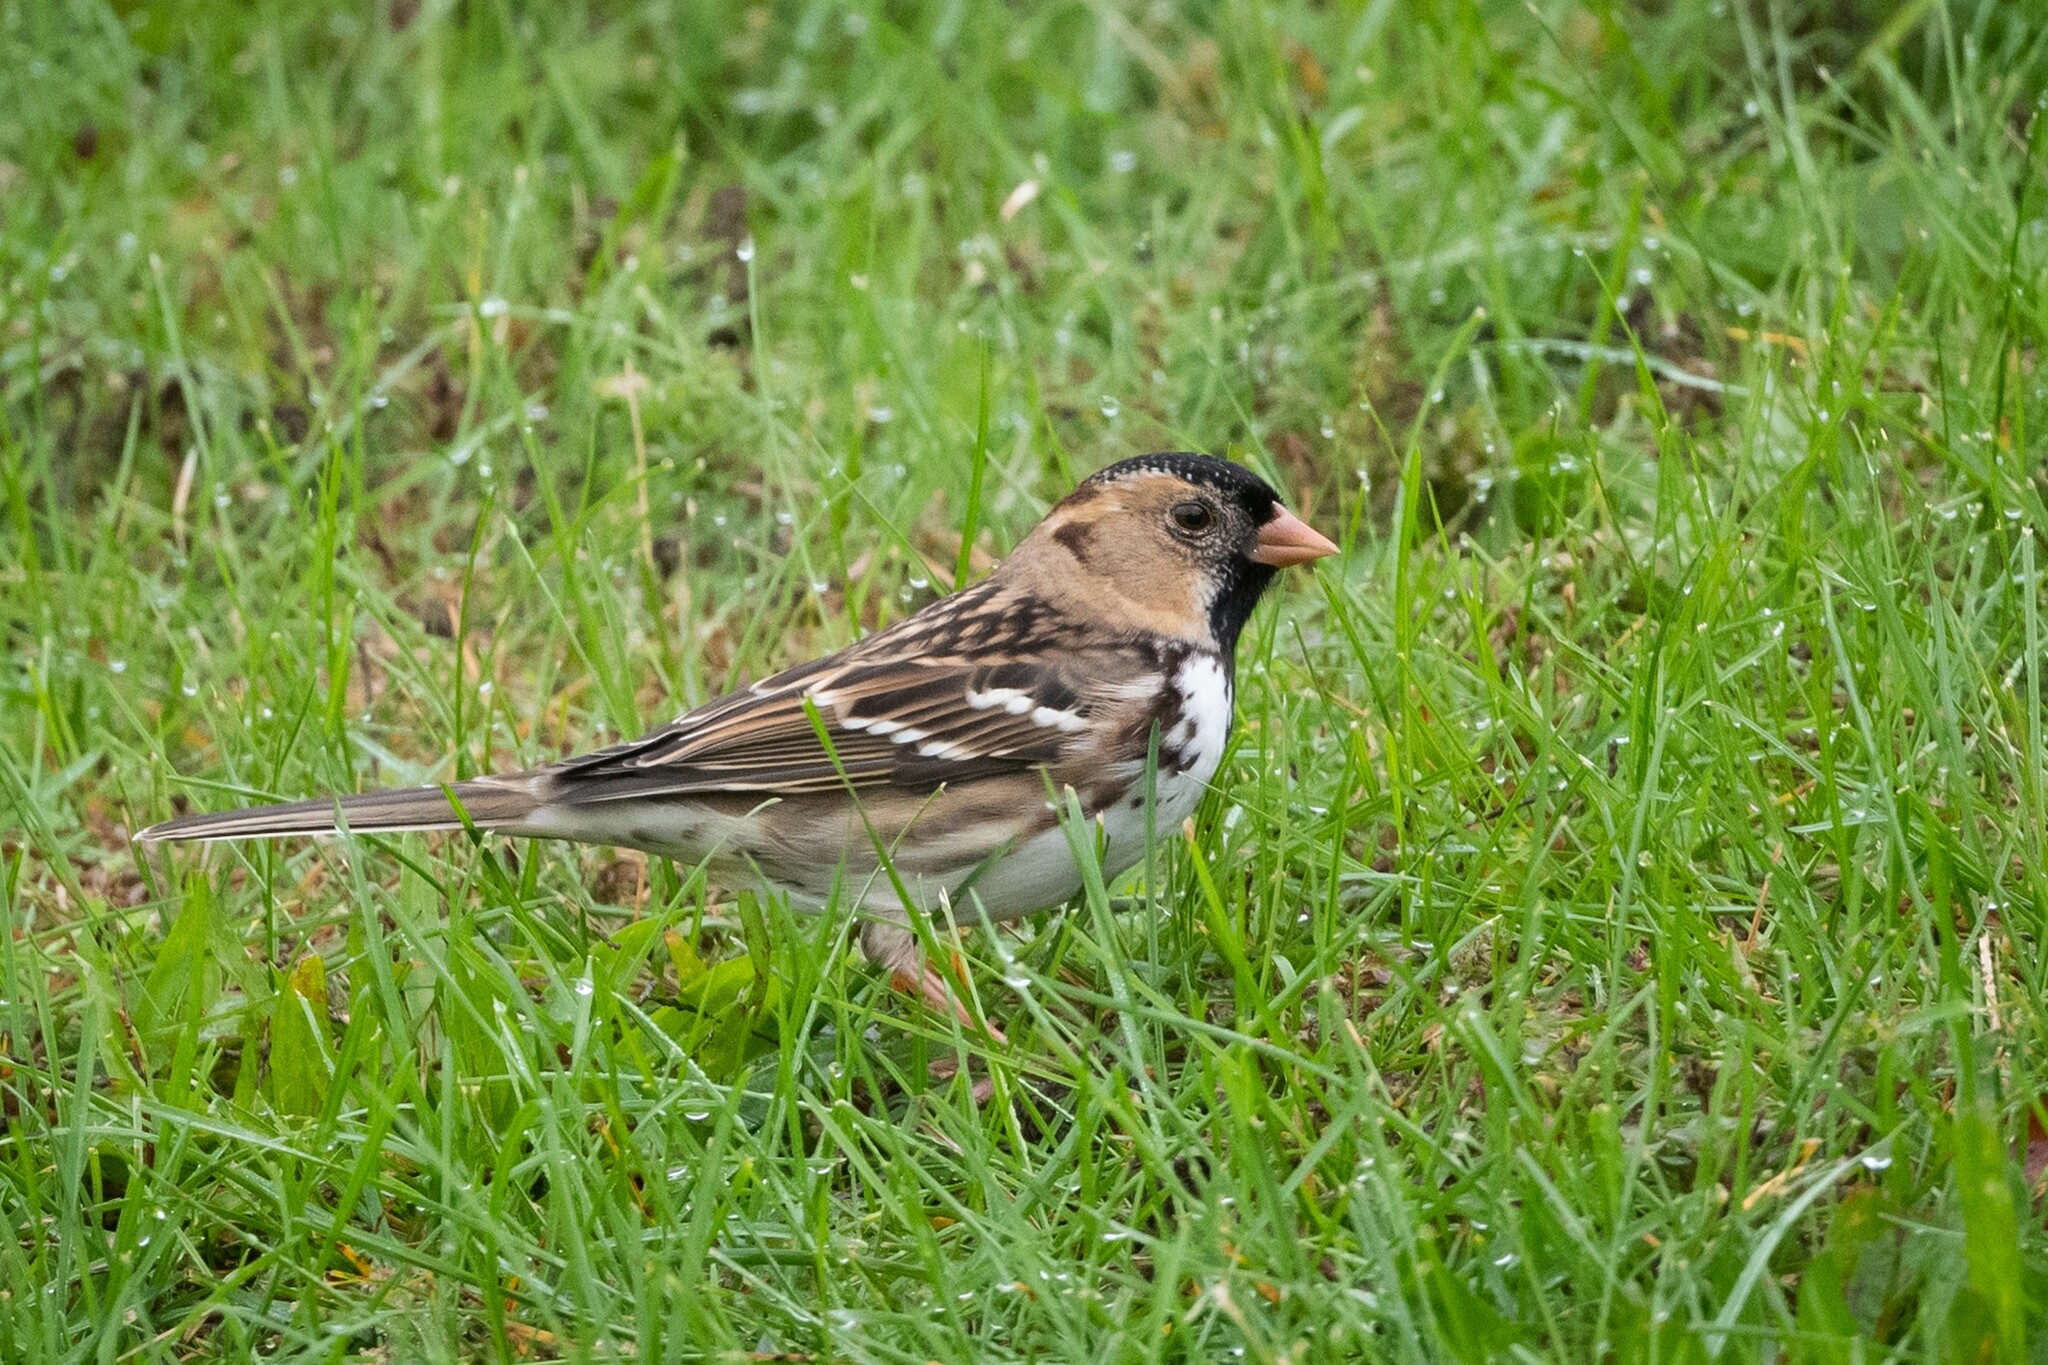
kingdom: Animalia
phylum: Chordata
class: Aves
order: Passeriformes
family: Passerellidae
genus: Zonotrichia
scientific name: Zonotrichia querula
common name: Harris's sparrow
